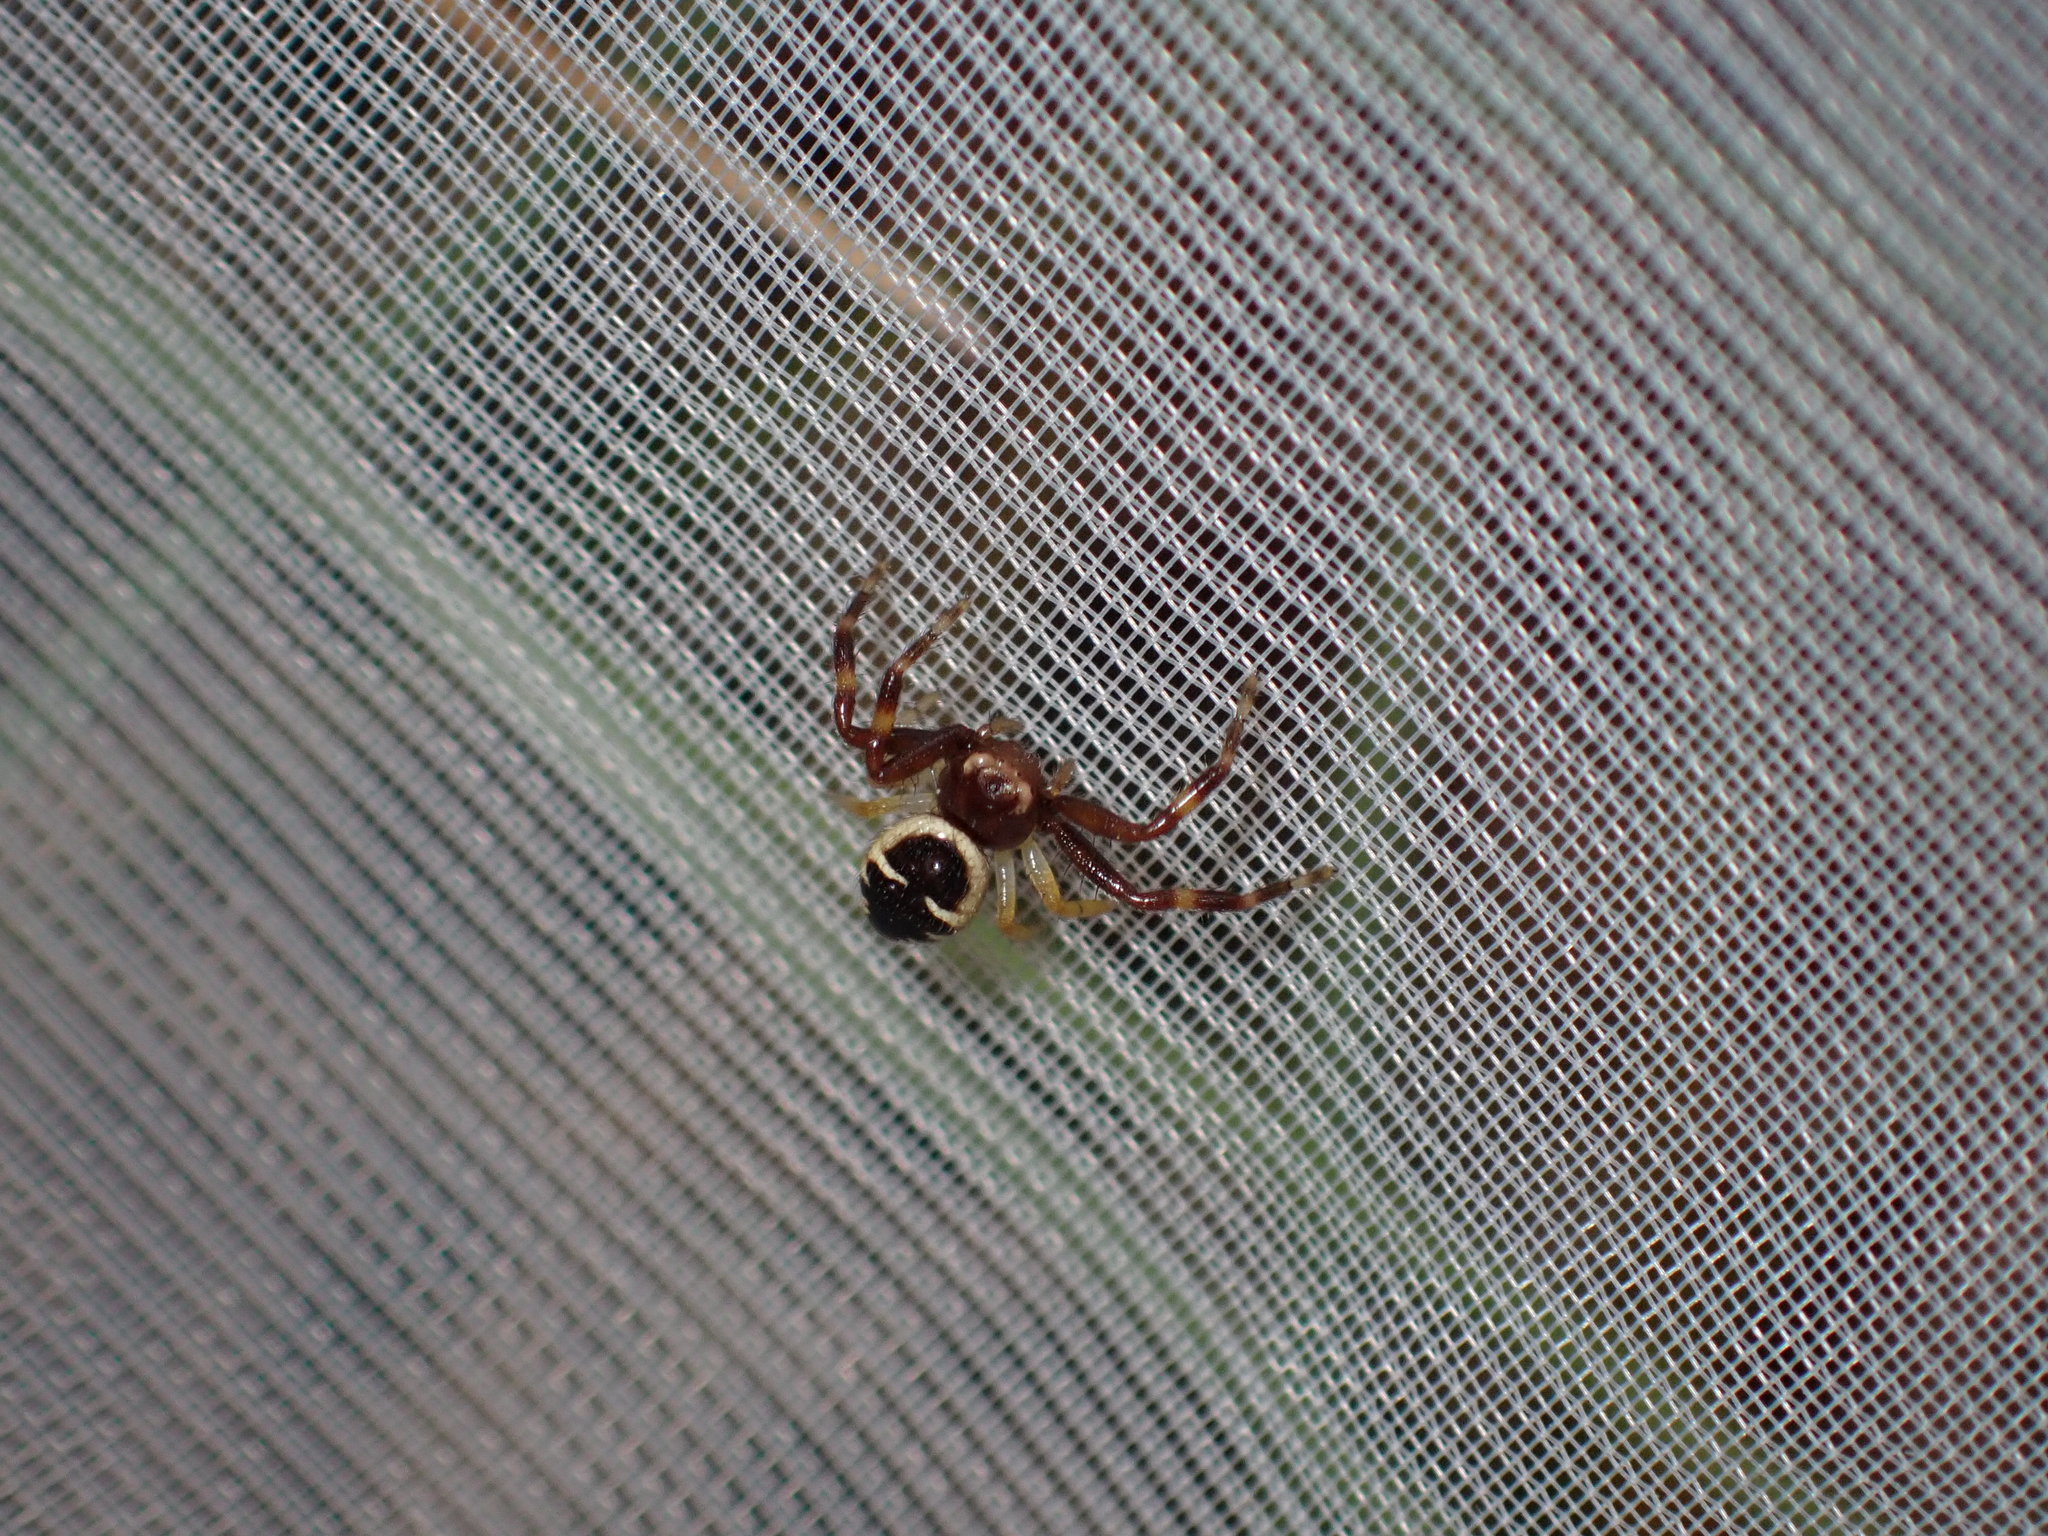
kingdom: Animalia
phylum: Arthropoda
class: Arachnida
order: Araneae
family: Thomisidae
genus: Synema
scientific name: Synema globosum
